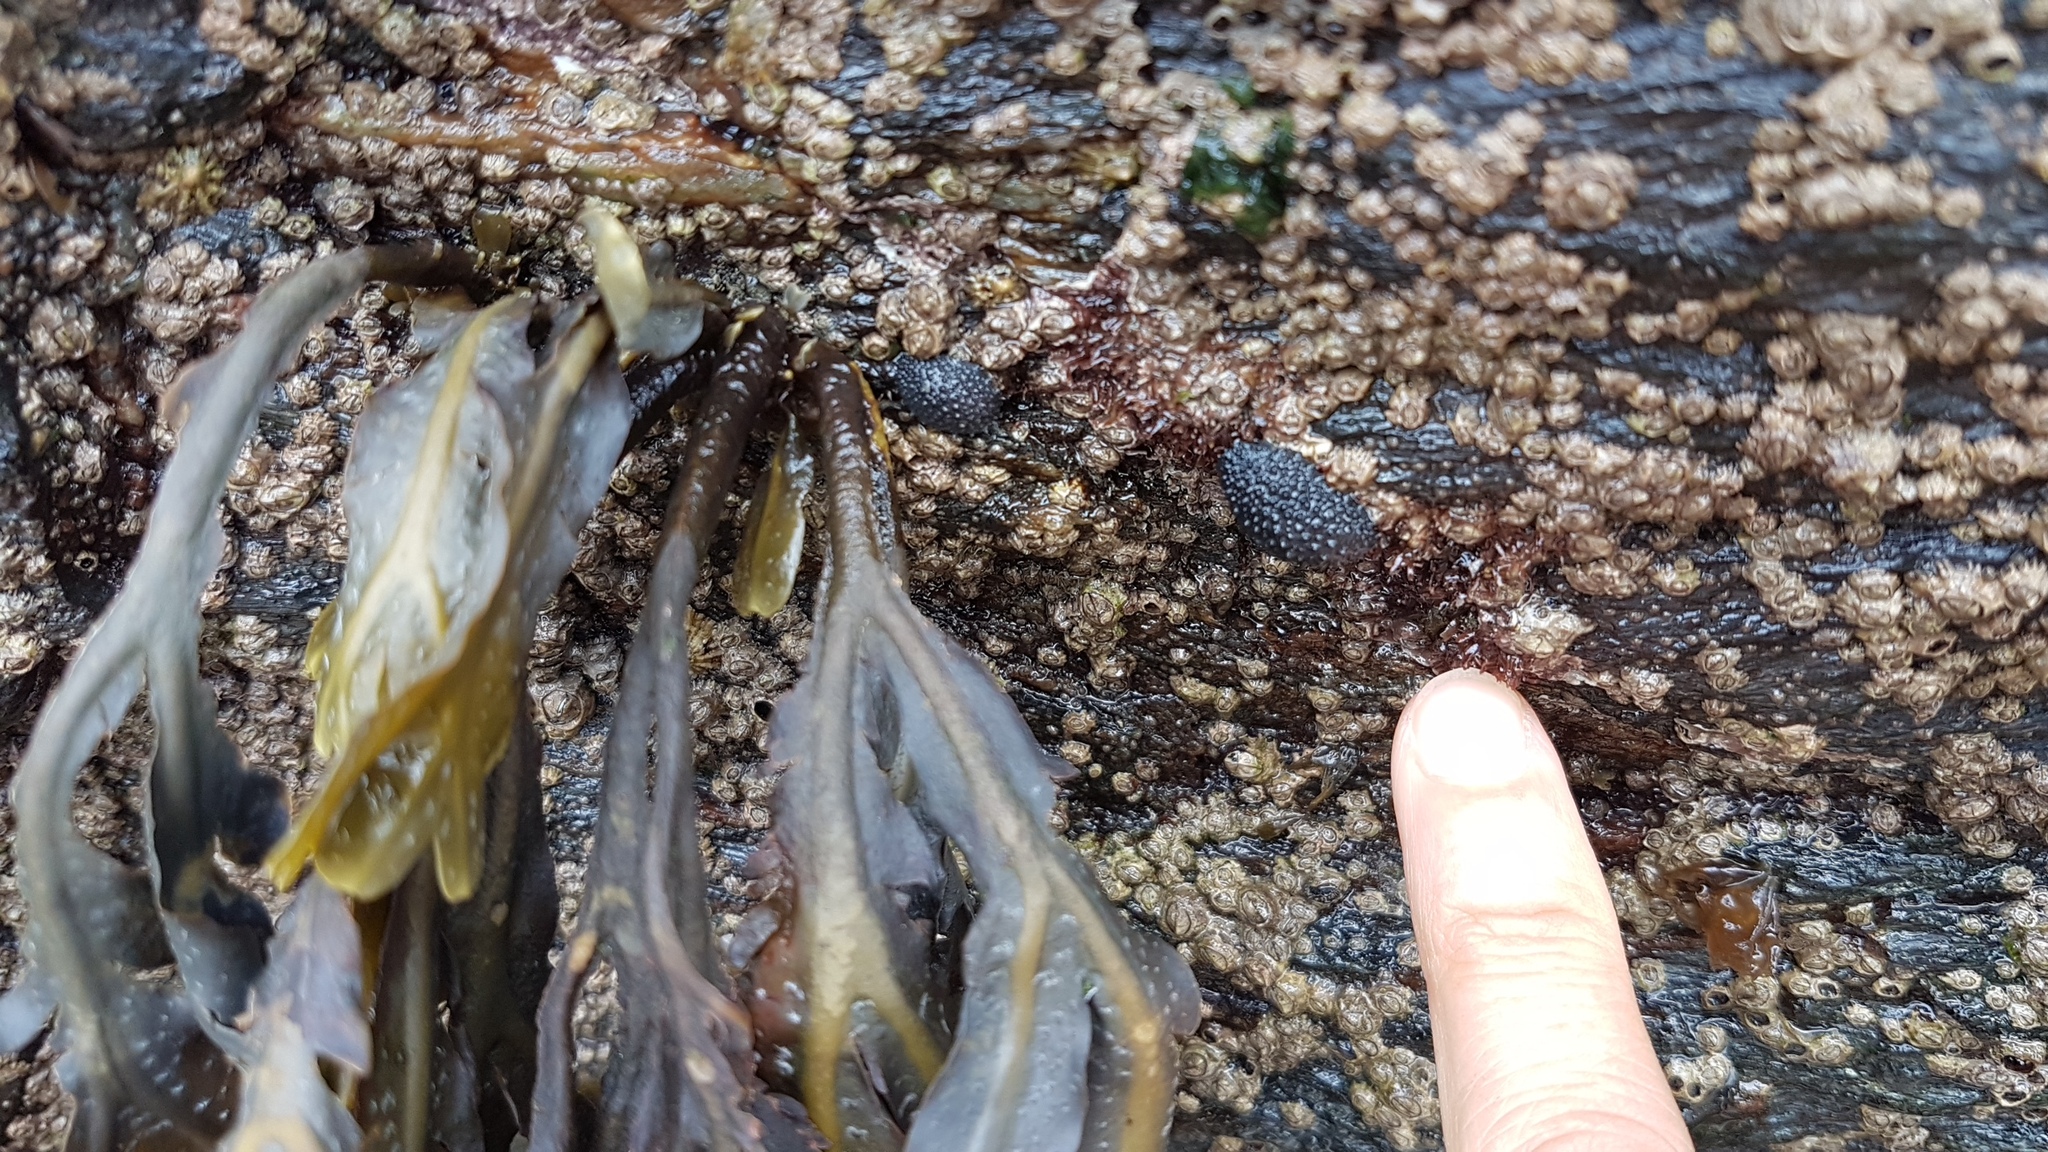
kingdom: Animalia
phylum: Mollusca
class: Gastropoda
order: Systellommatophora
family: Onchidiidae
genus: Onchidella
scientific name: Onchidella celtica
